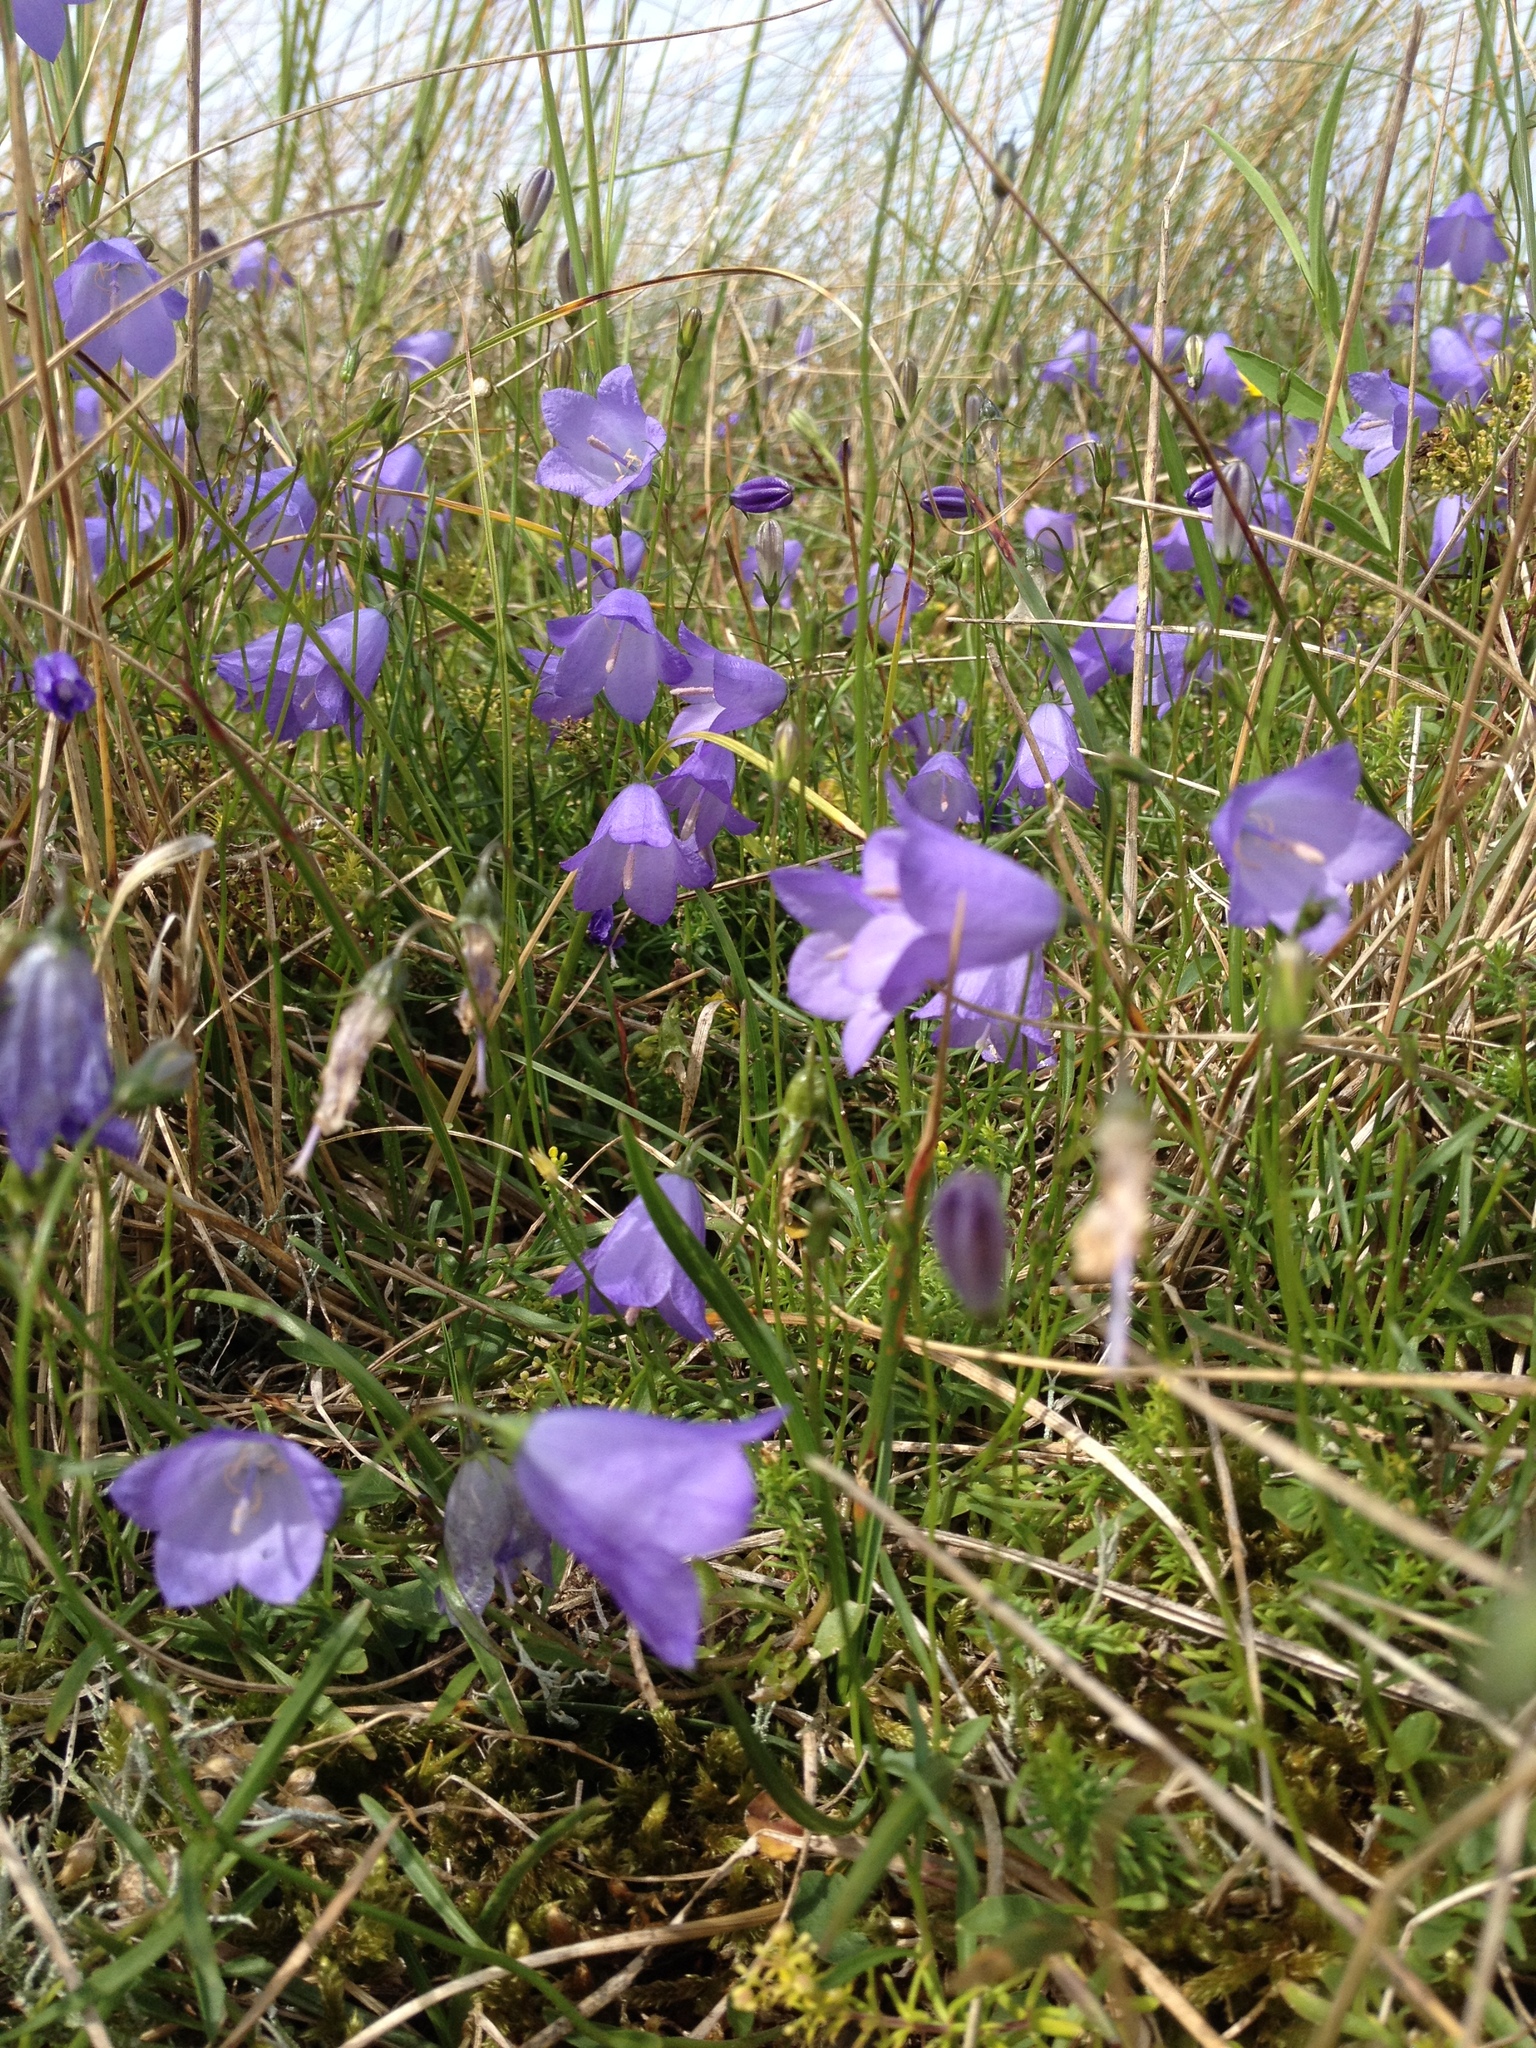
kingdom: Plantae
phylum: Tracheophyta
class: Magnoliopsida
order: Asterales
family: Campanulaceae
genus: Campanula
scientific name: Campanula rotundifolia
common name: Harebell
